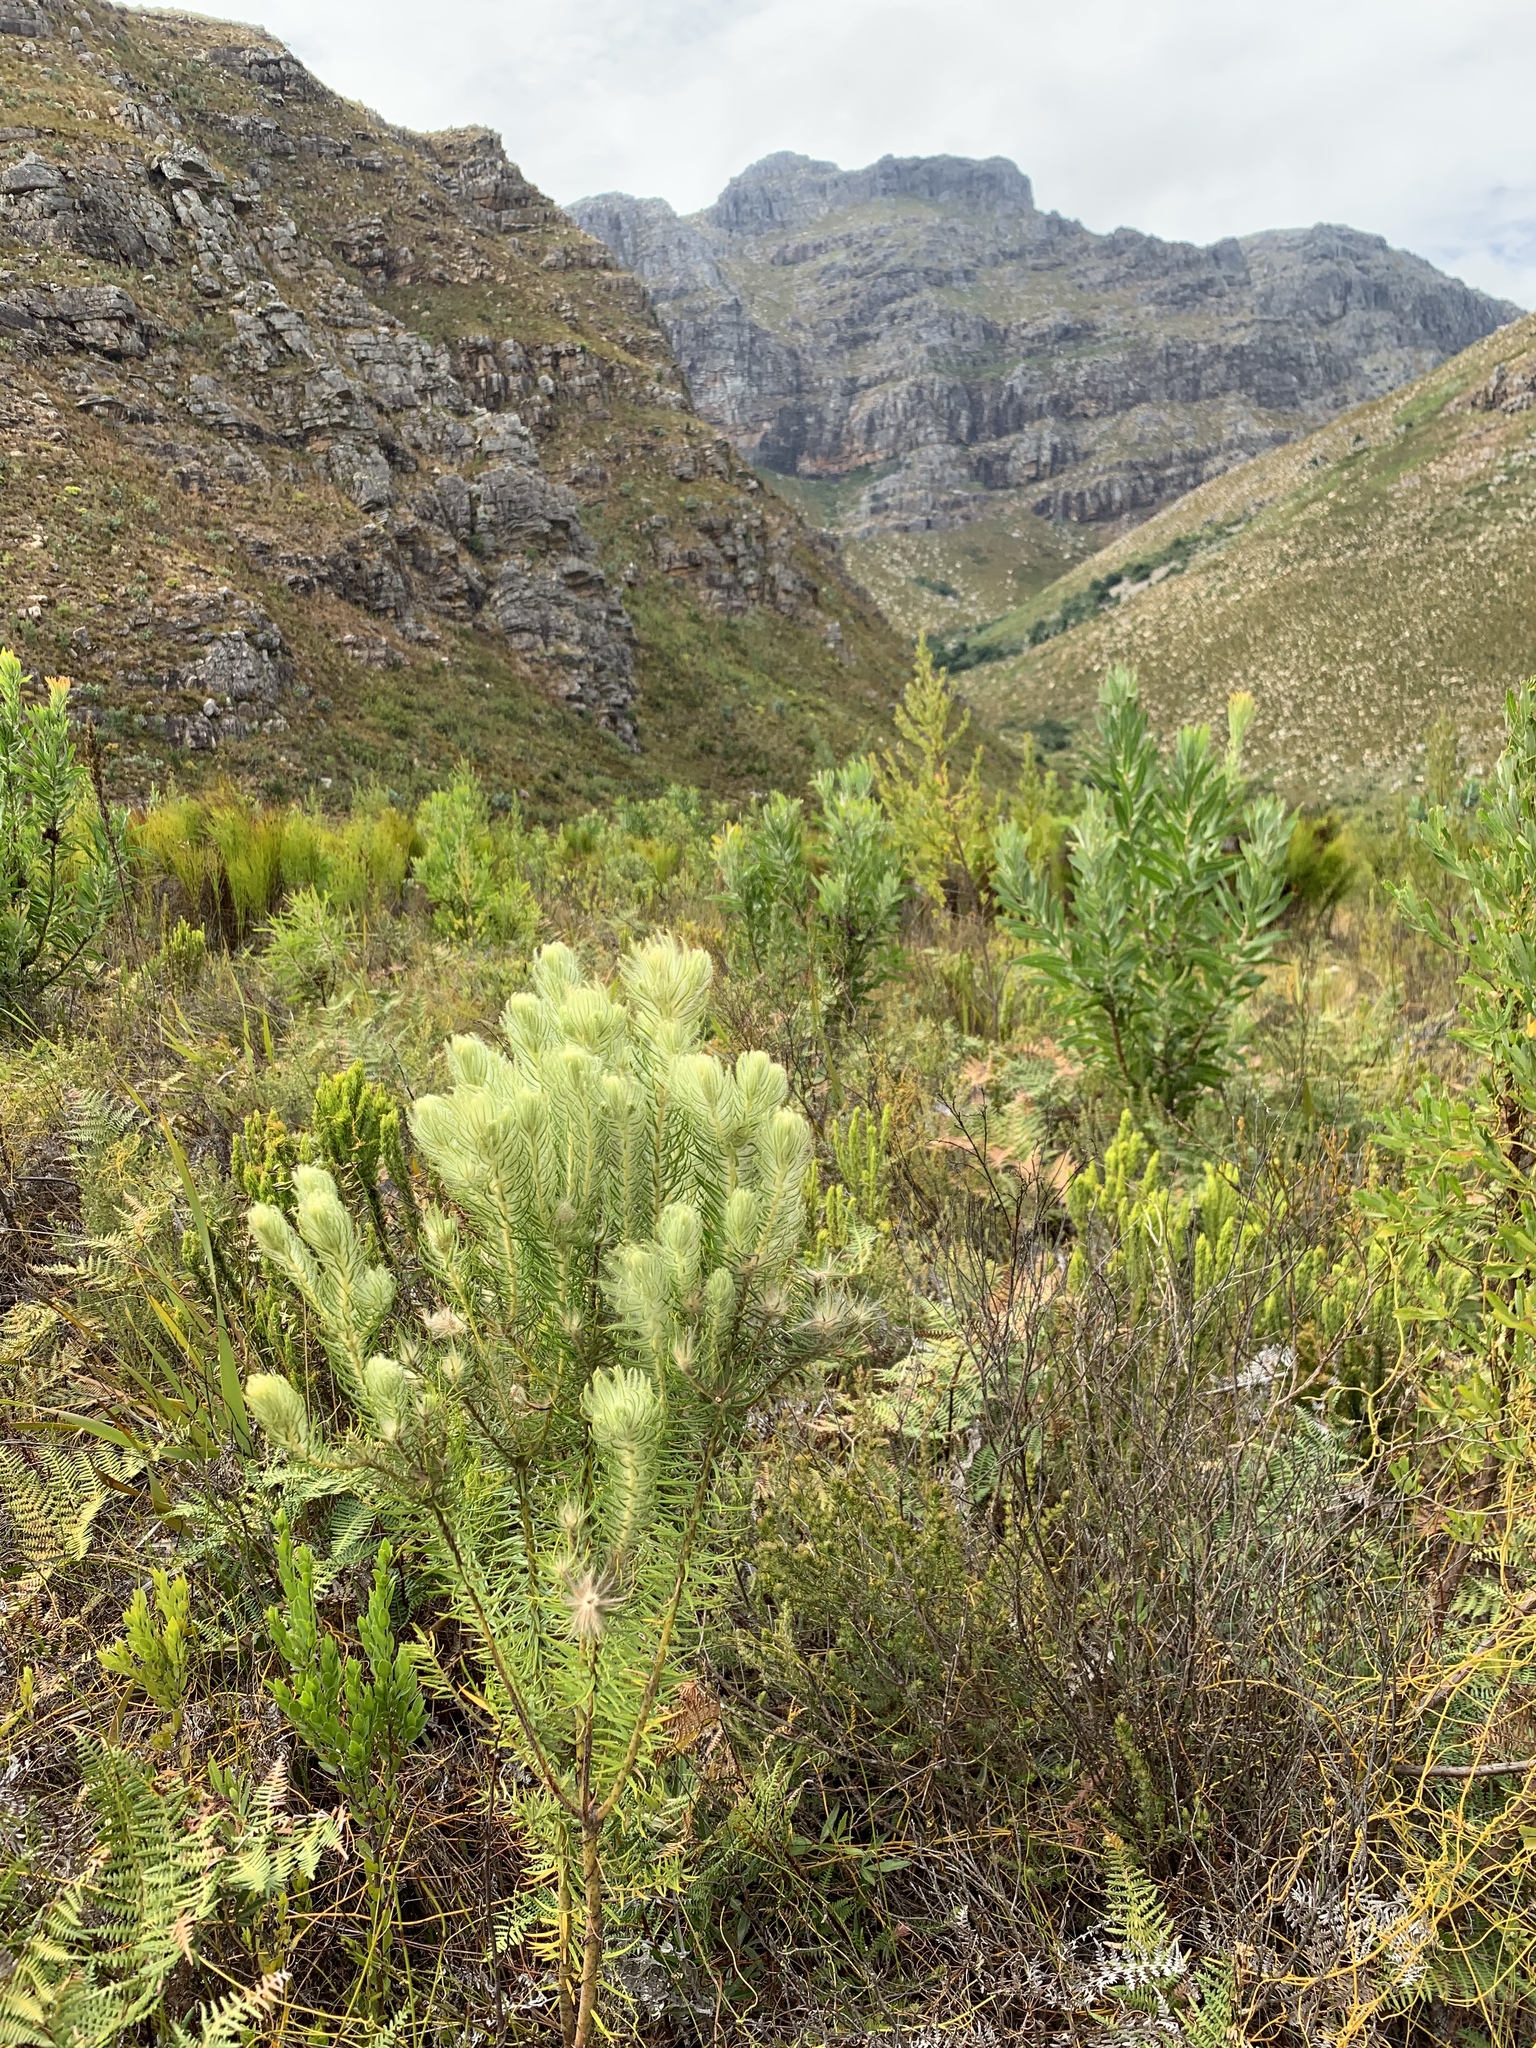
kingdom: Plantae
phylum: Tracheophyta
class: Magnoliopsida
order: Rosales
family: Rhamnaceae
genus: Phylica
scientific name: Phylica pubescens
